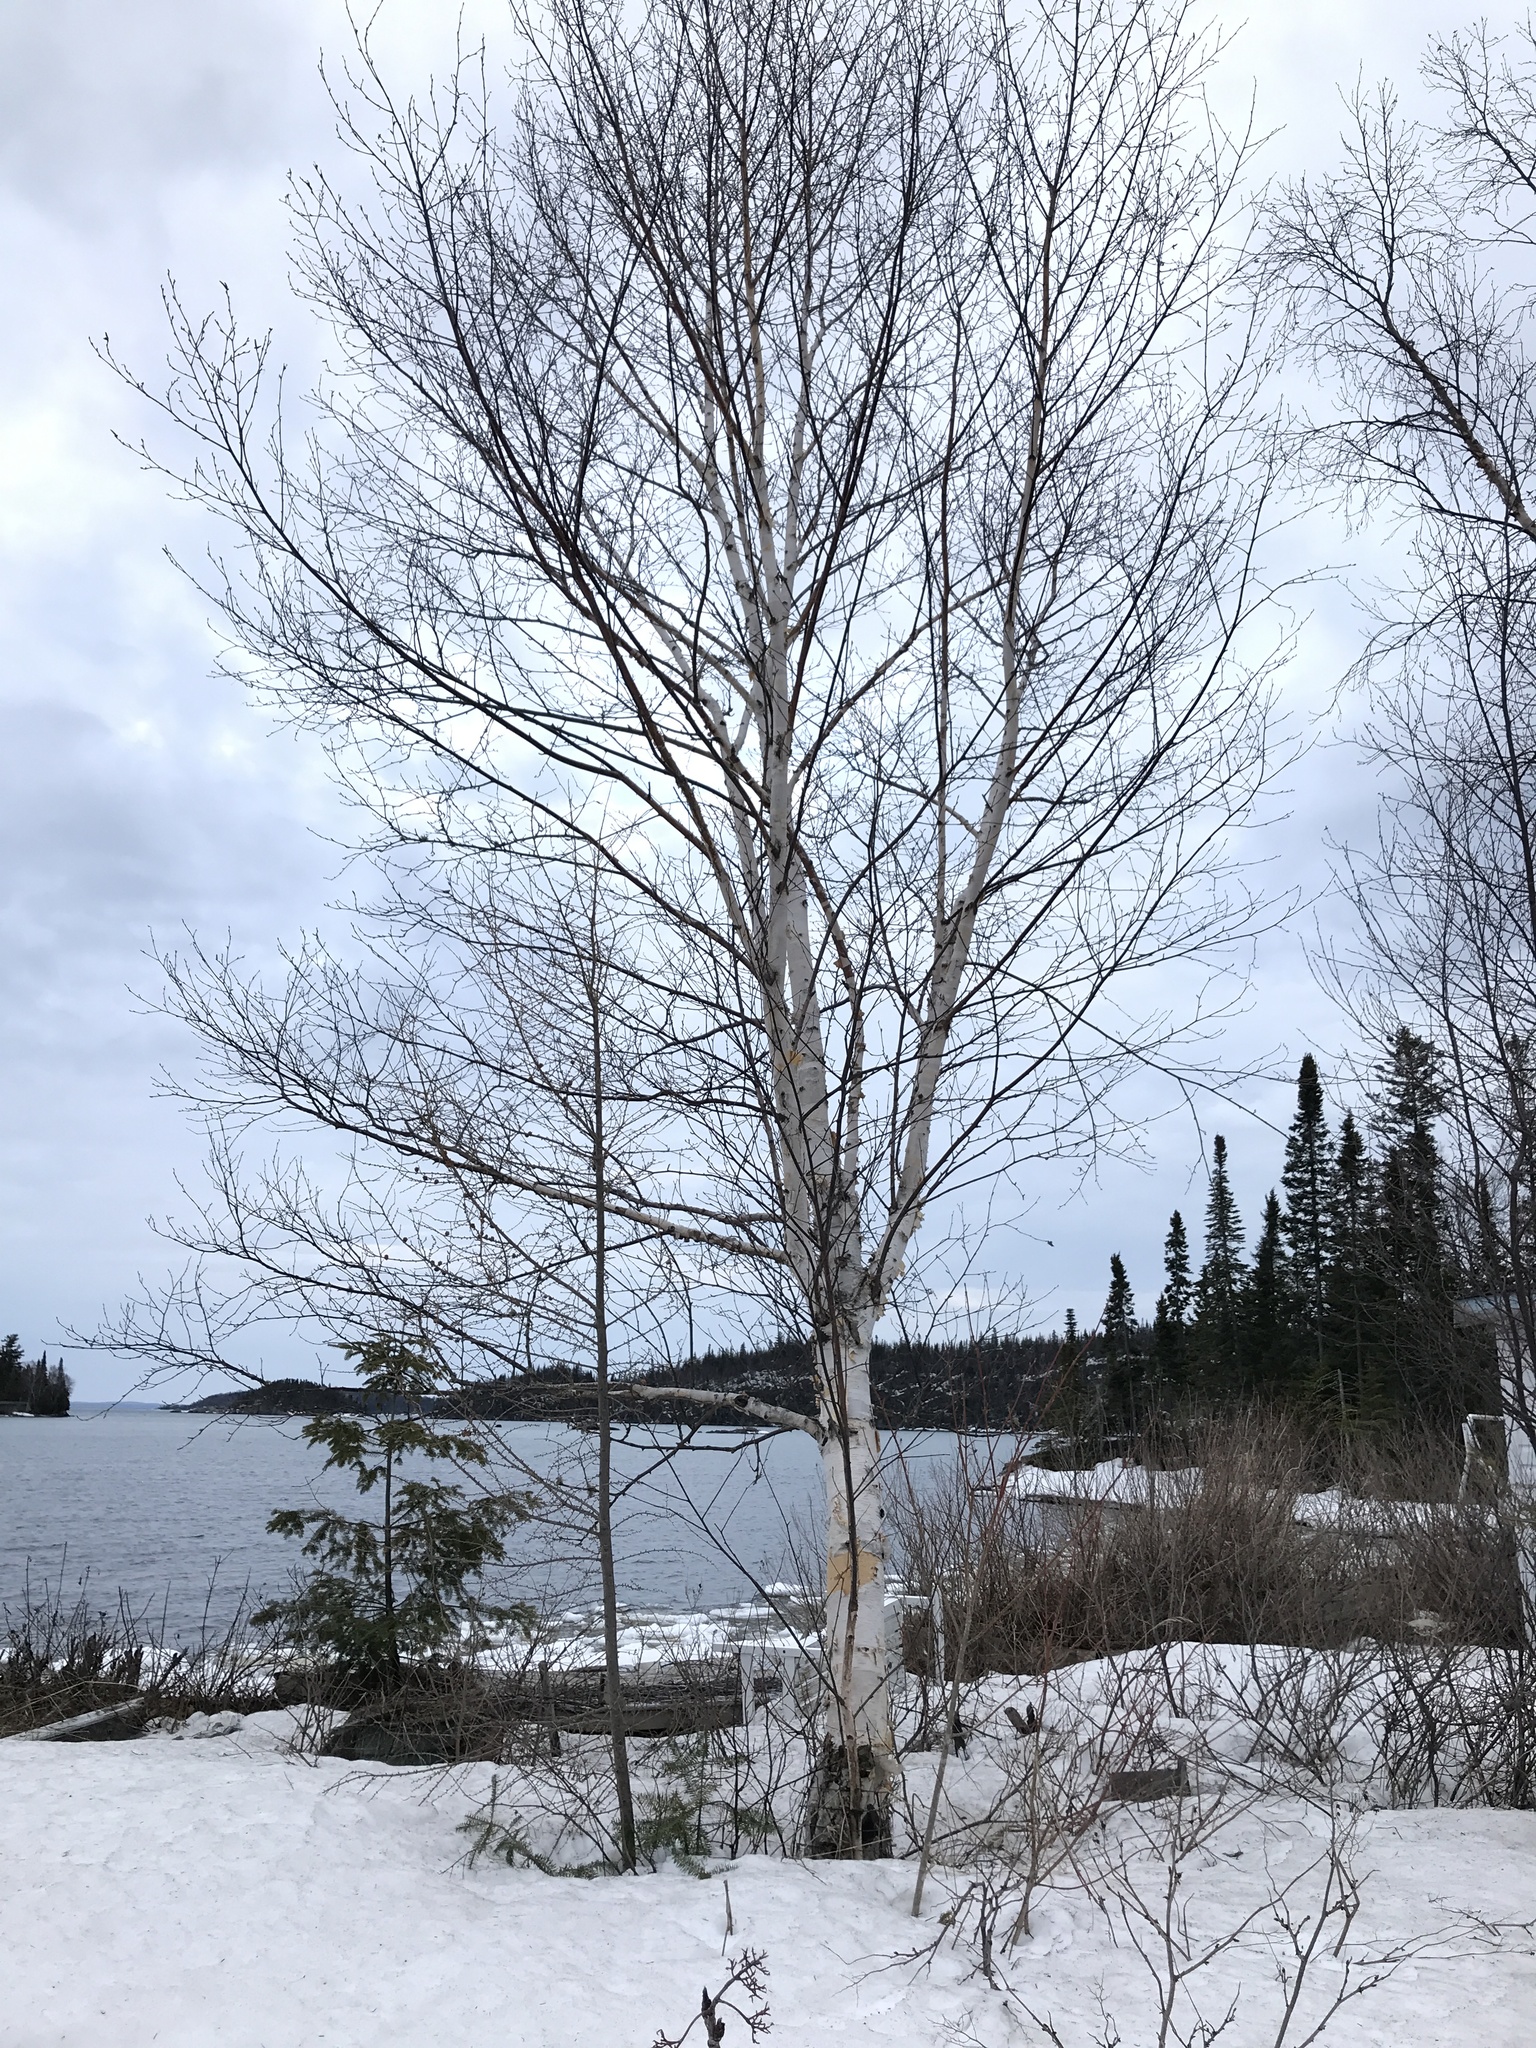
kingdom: Plantae
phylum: Tracheophyta
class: Magnoliopsida
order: Fagales
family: Betulaceae
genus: Betula
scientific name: Betula papyrifera
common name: Paper birch
